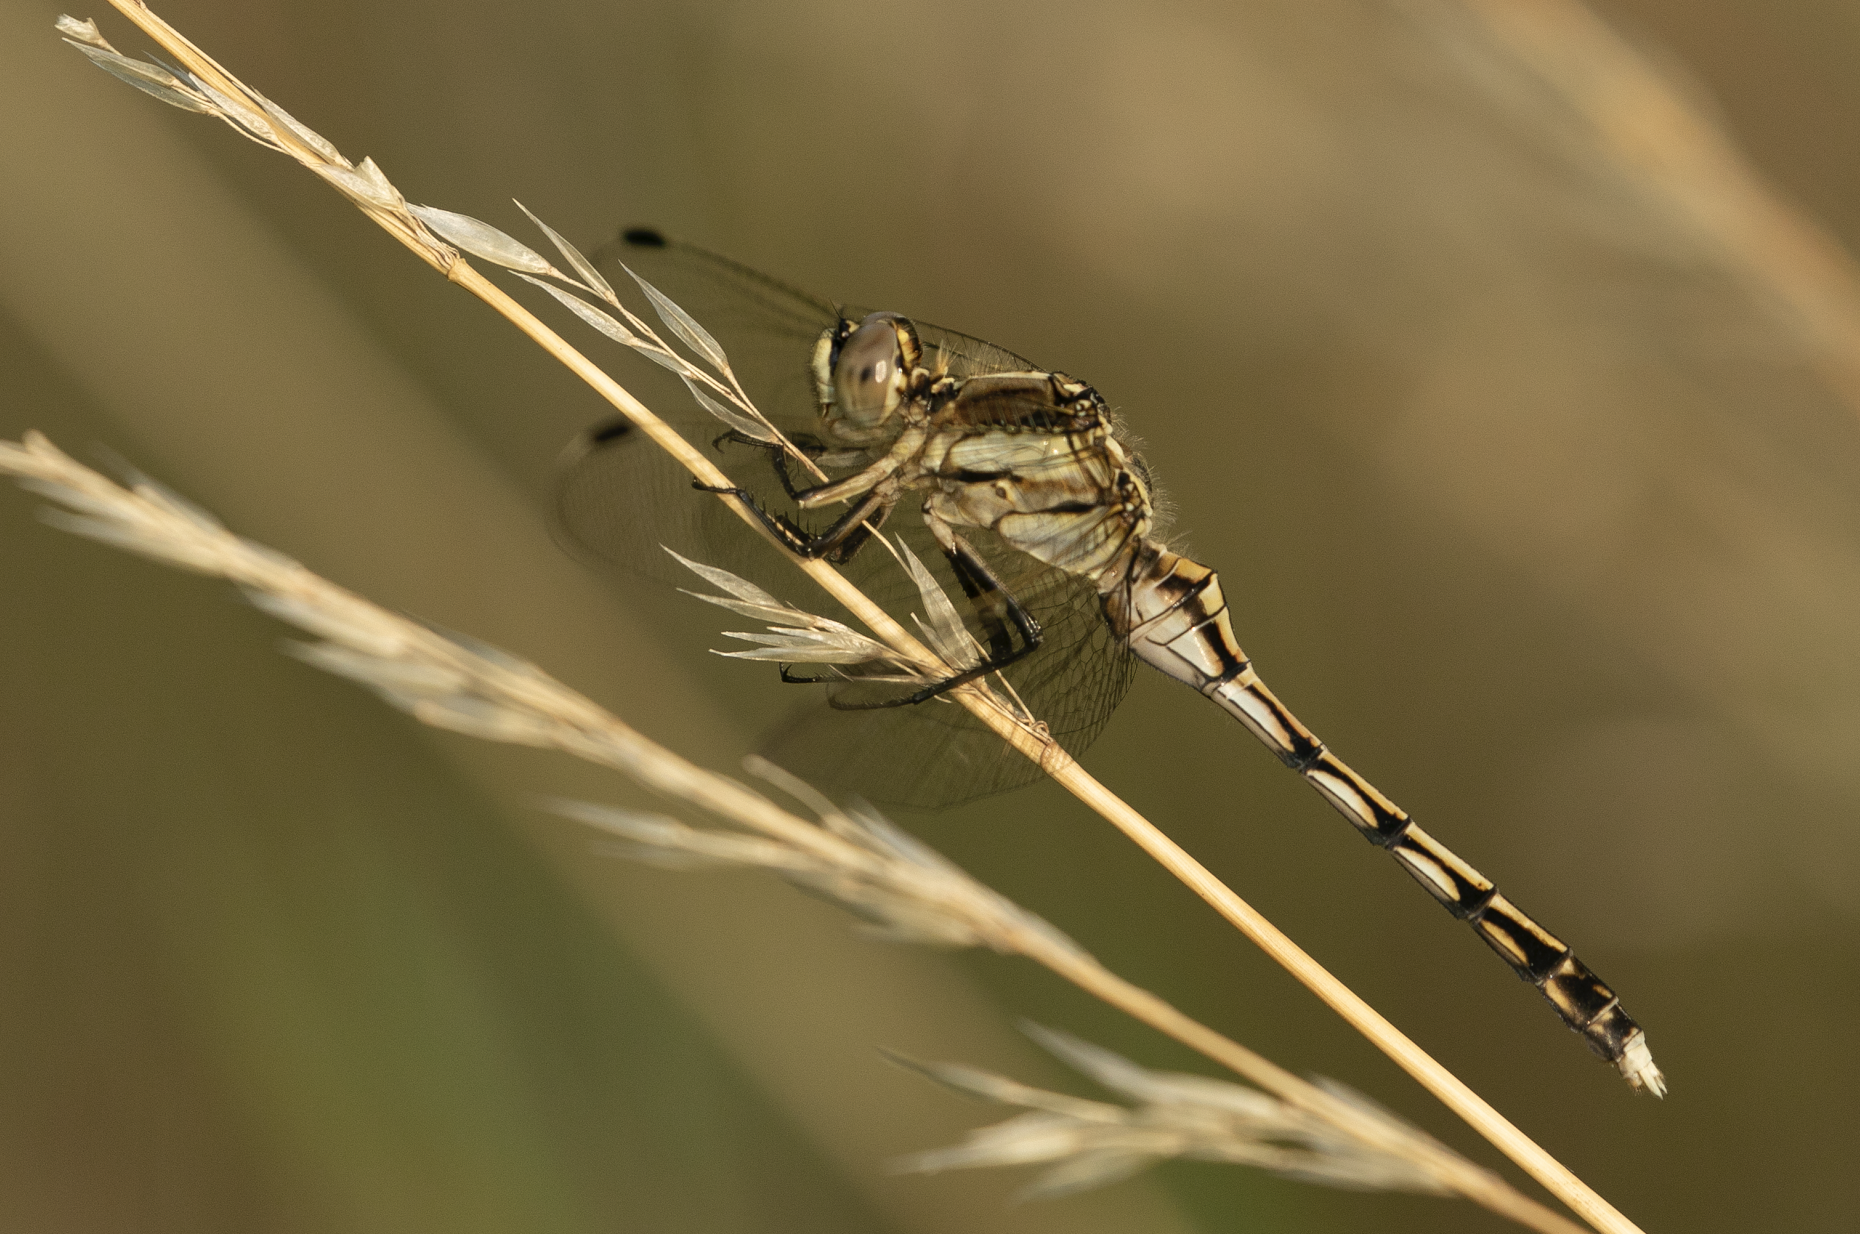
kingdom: Animalia
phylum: Arthropoda
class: Insecta
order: Odonata
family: Libellulidae
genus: Orthetrum
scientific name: Orthetrum albistylum
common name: White-tailed skimmer
